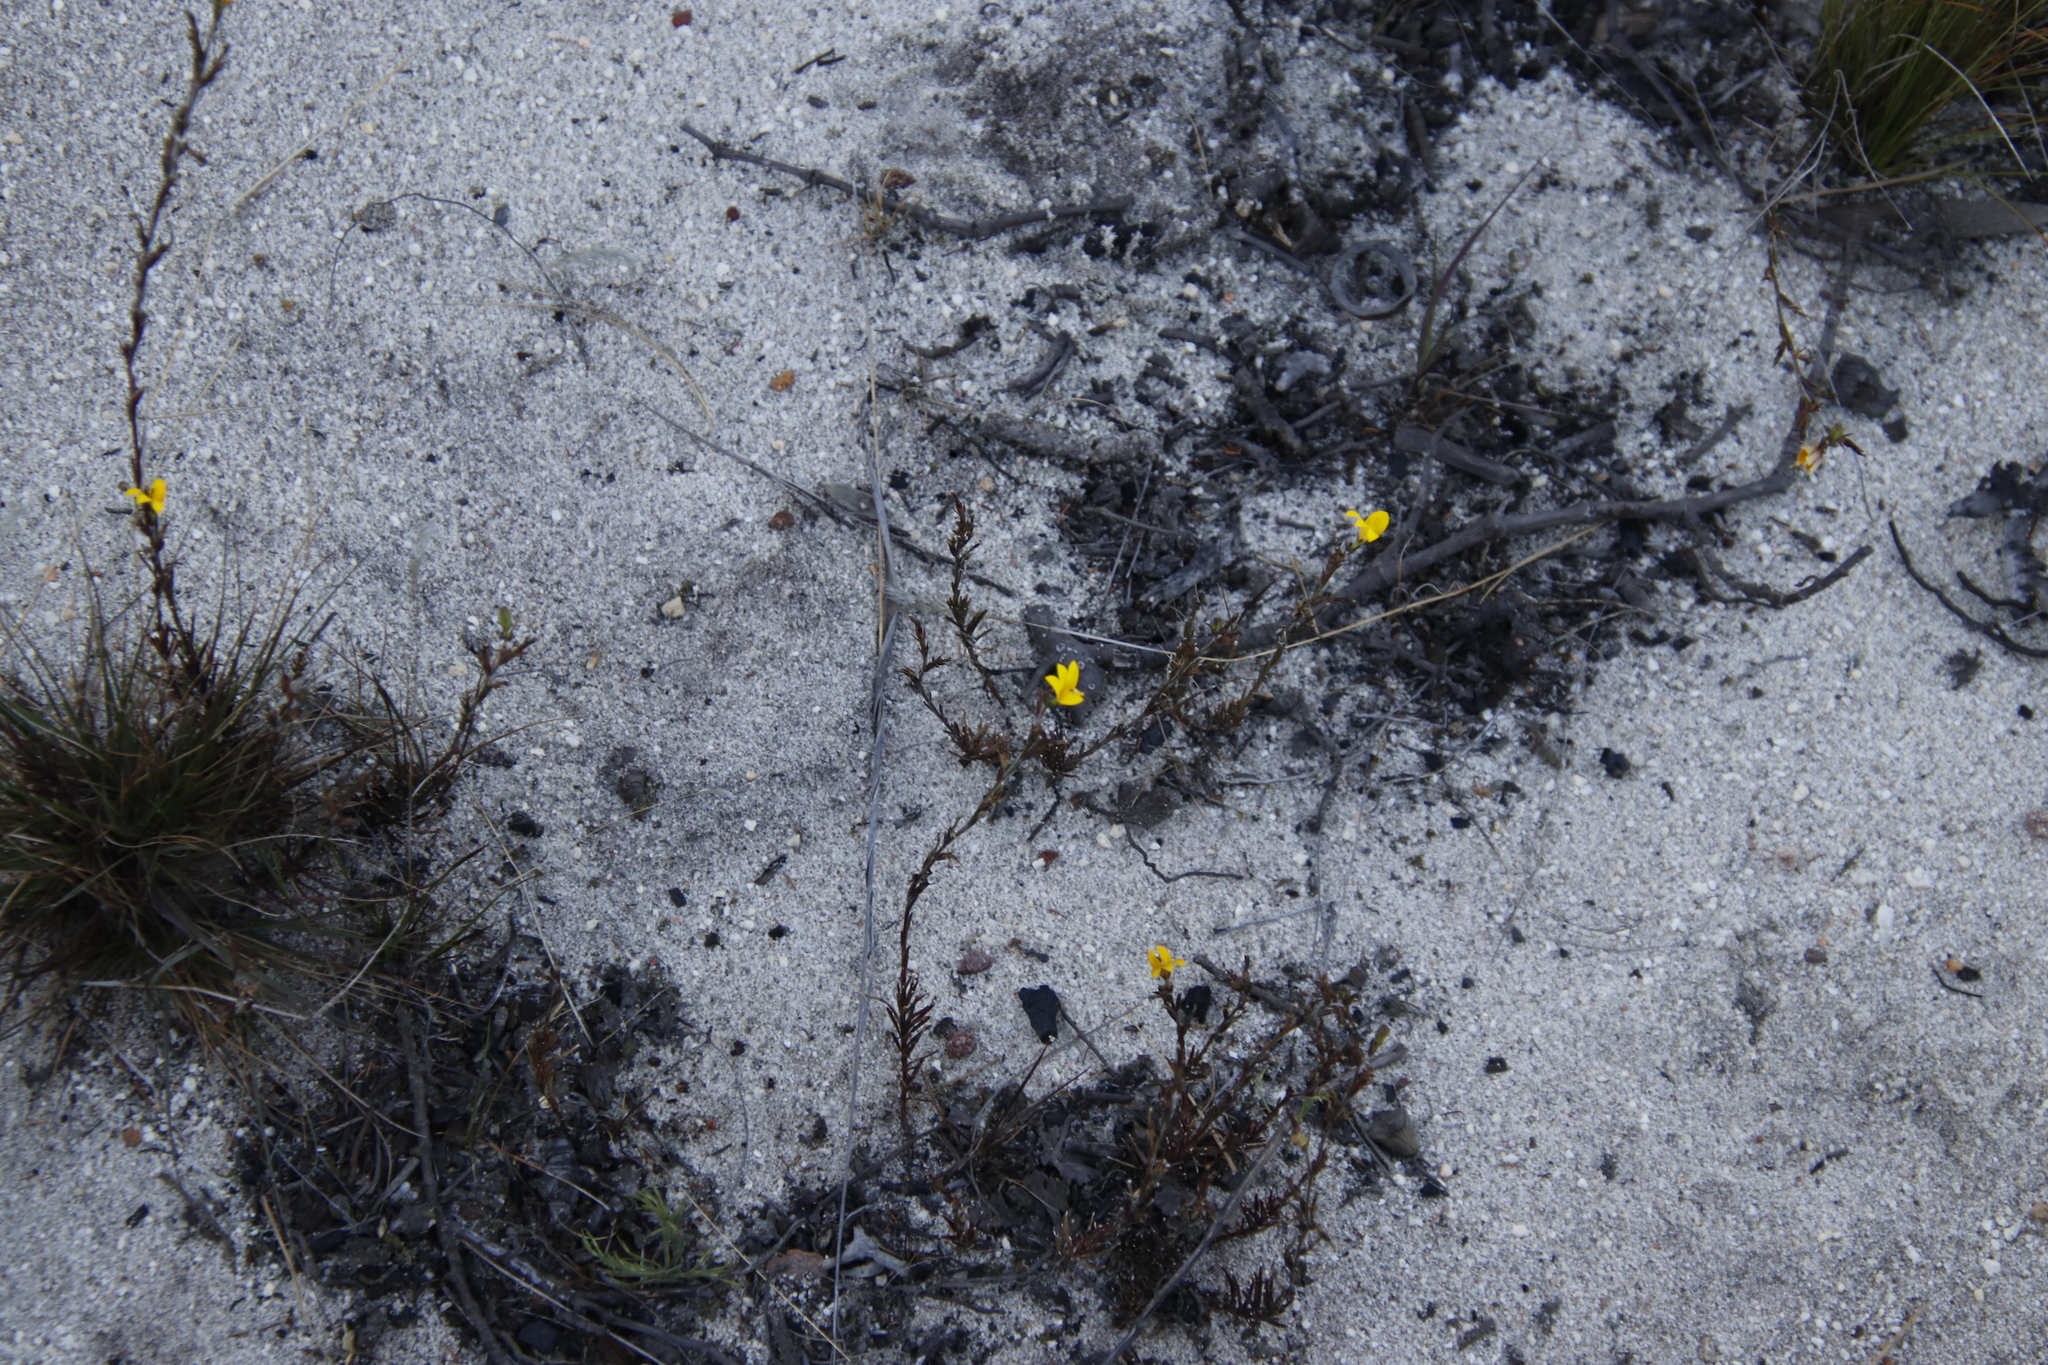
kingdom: Plantae
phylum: Tracheophyta
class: Magnoliopsida
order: Asterales
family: Campanulaceae
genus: Monopsis
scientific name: Monopsis lutea
